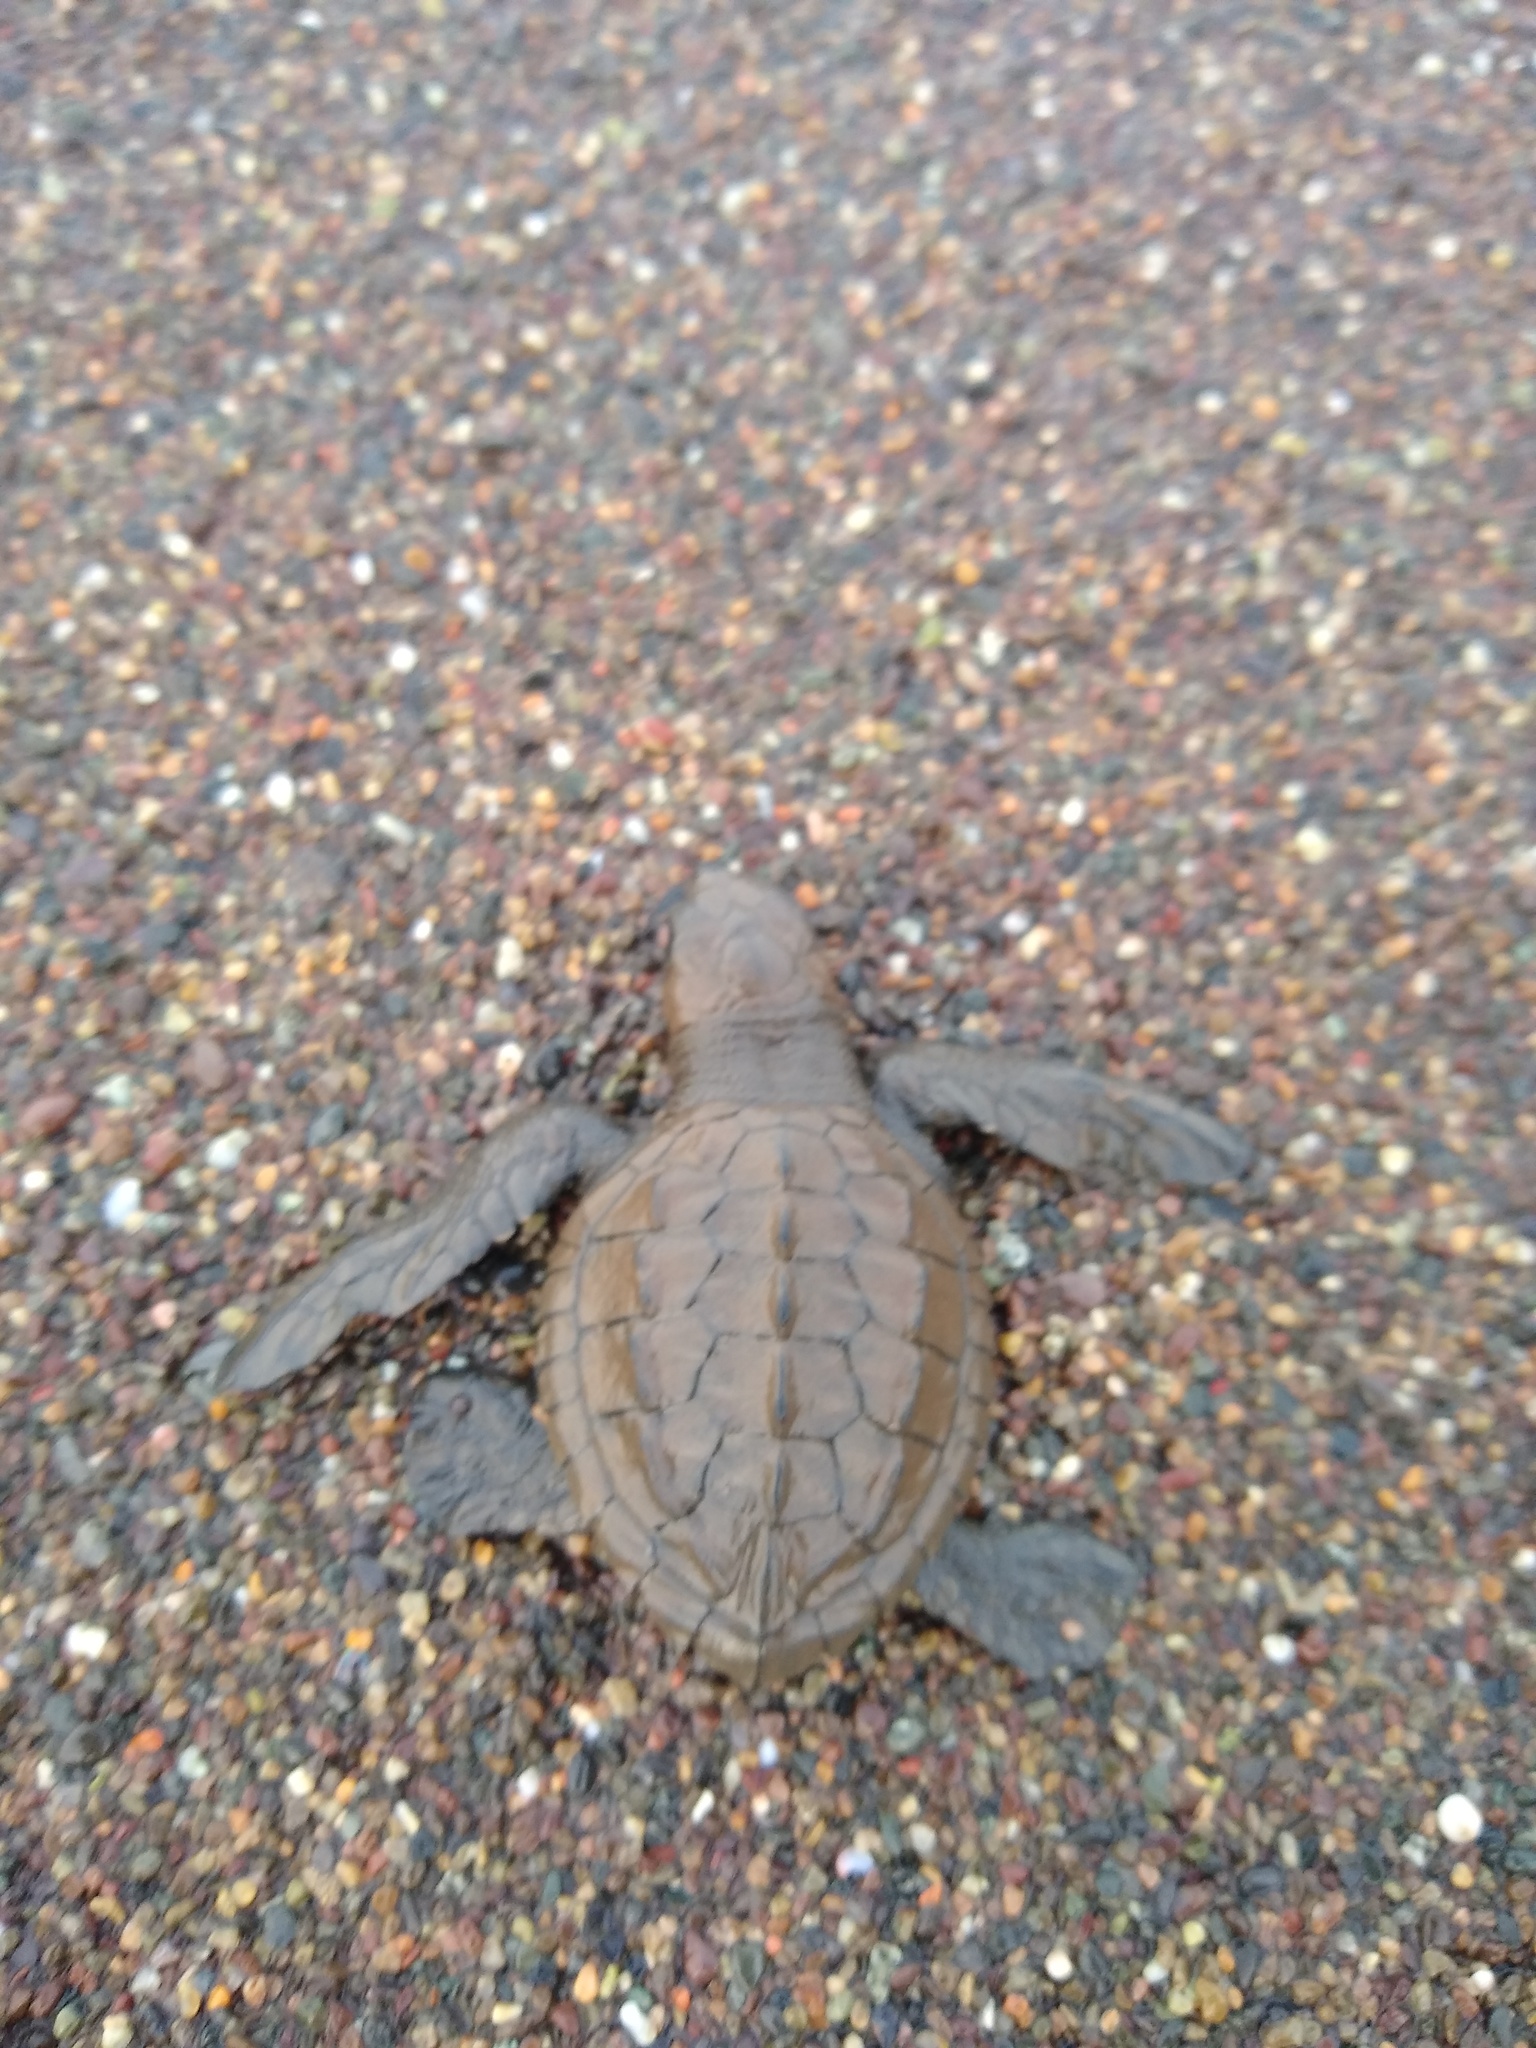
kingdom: Animalia
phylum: Chordata
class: Testudines
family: Cheloniidae
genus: Lepidochelys
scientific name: Lepidochelys olivacea
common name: Olive ridley
